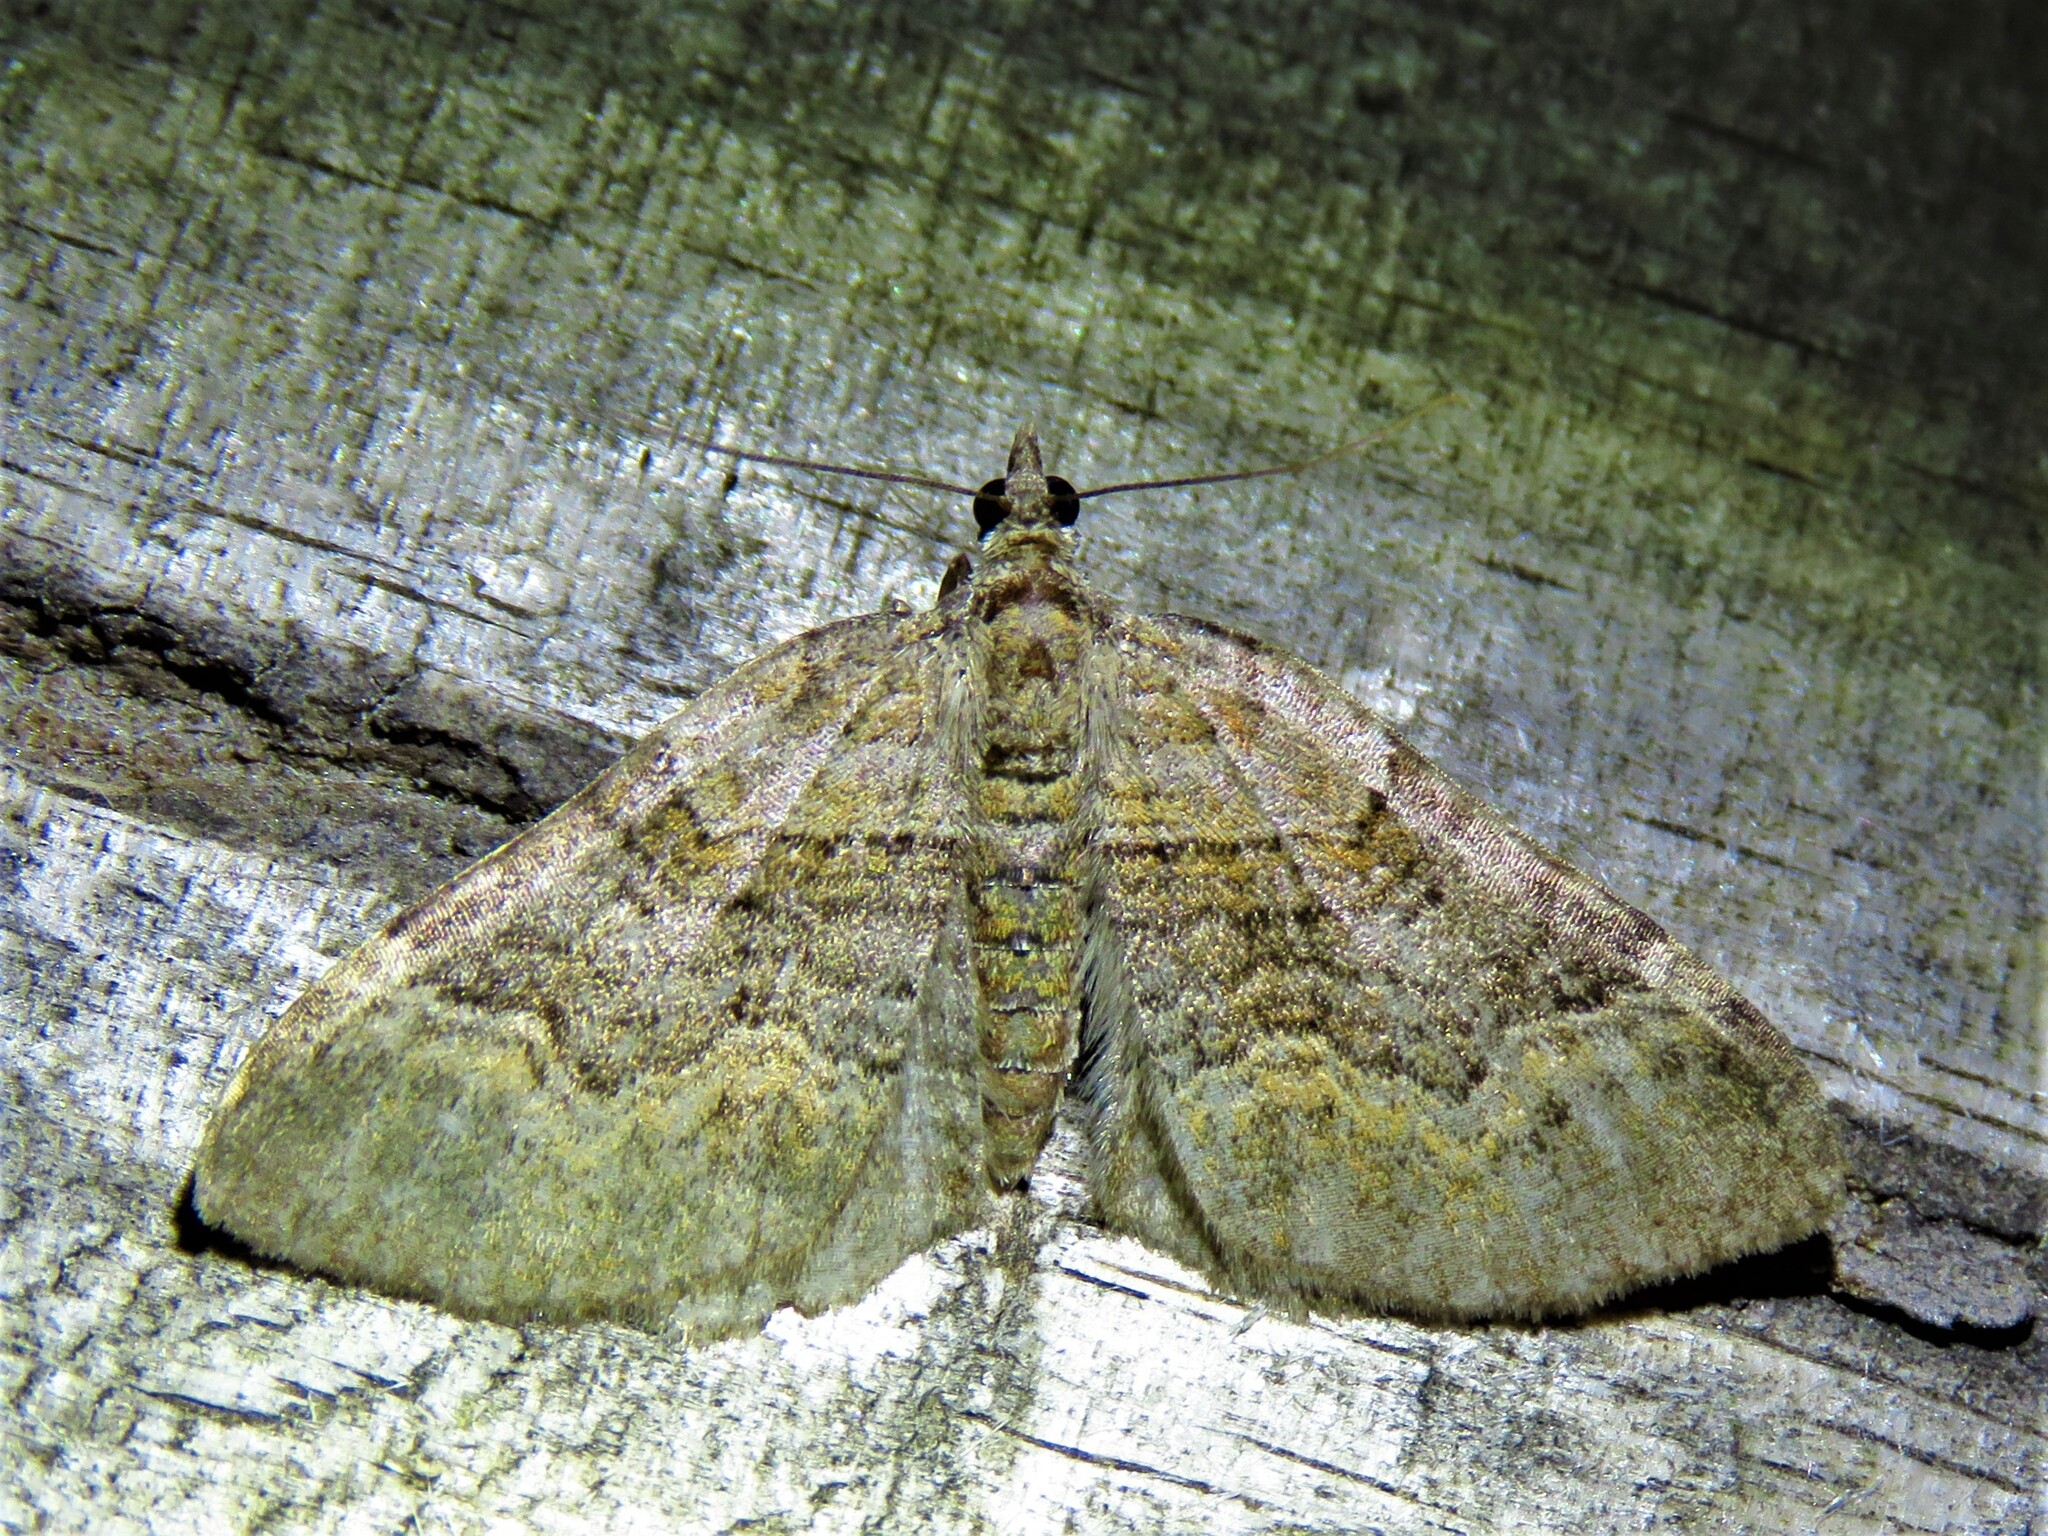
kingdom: Animalia
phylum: Arthropoda
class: Insecta
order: Lepidoptera
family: Geometridae
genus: Xanthorhoe
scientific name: Xanthorhoe quadrifasiata
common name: Large twin-spot carpet
